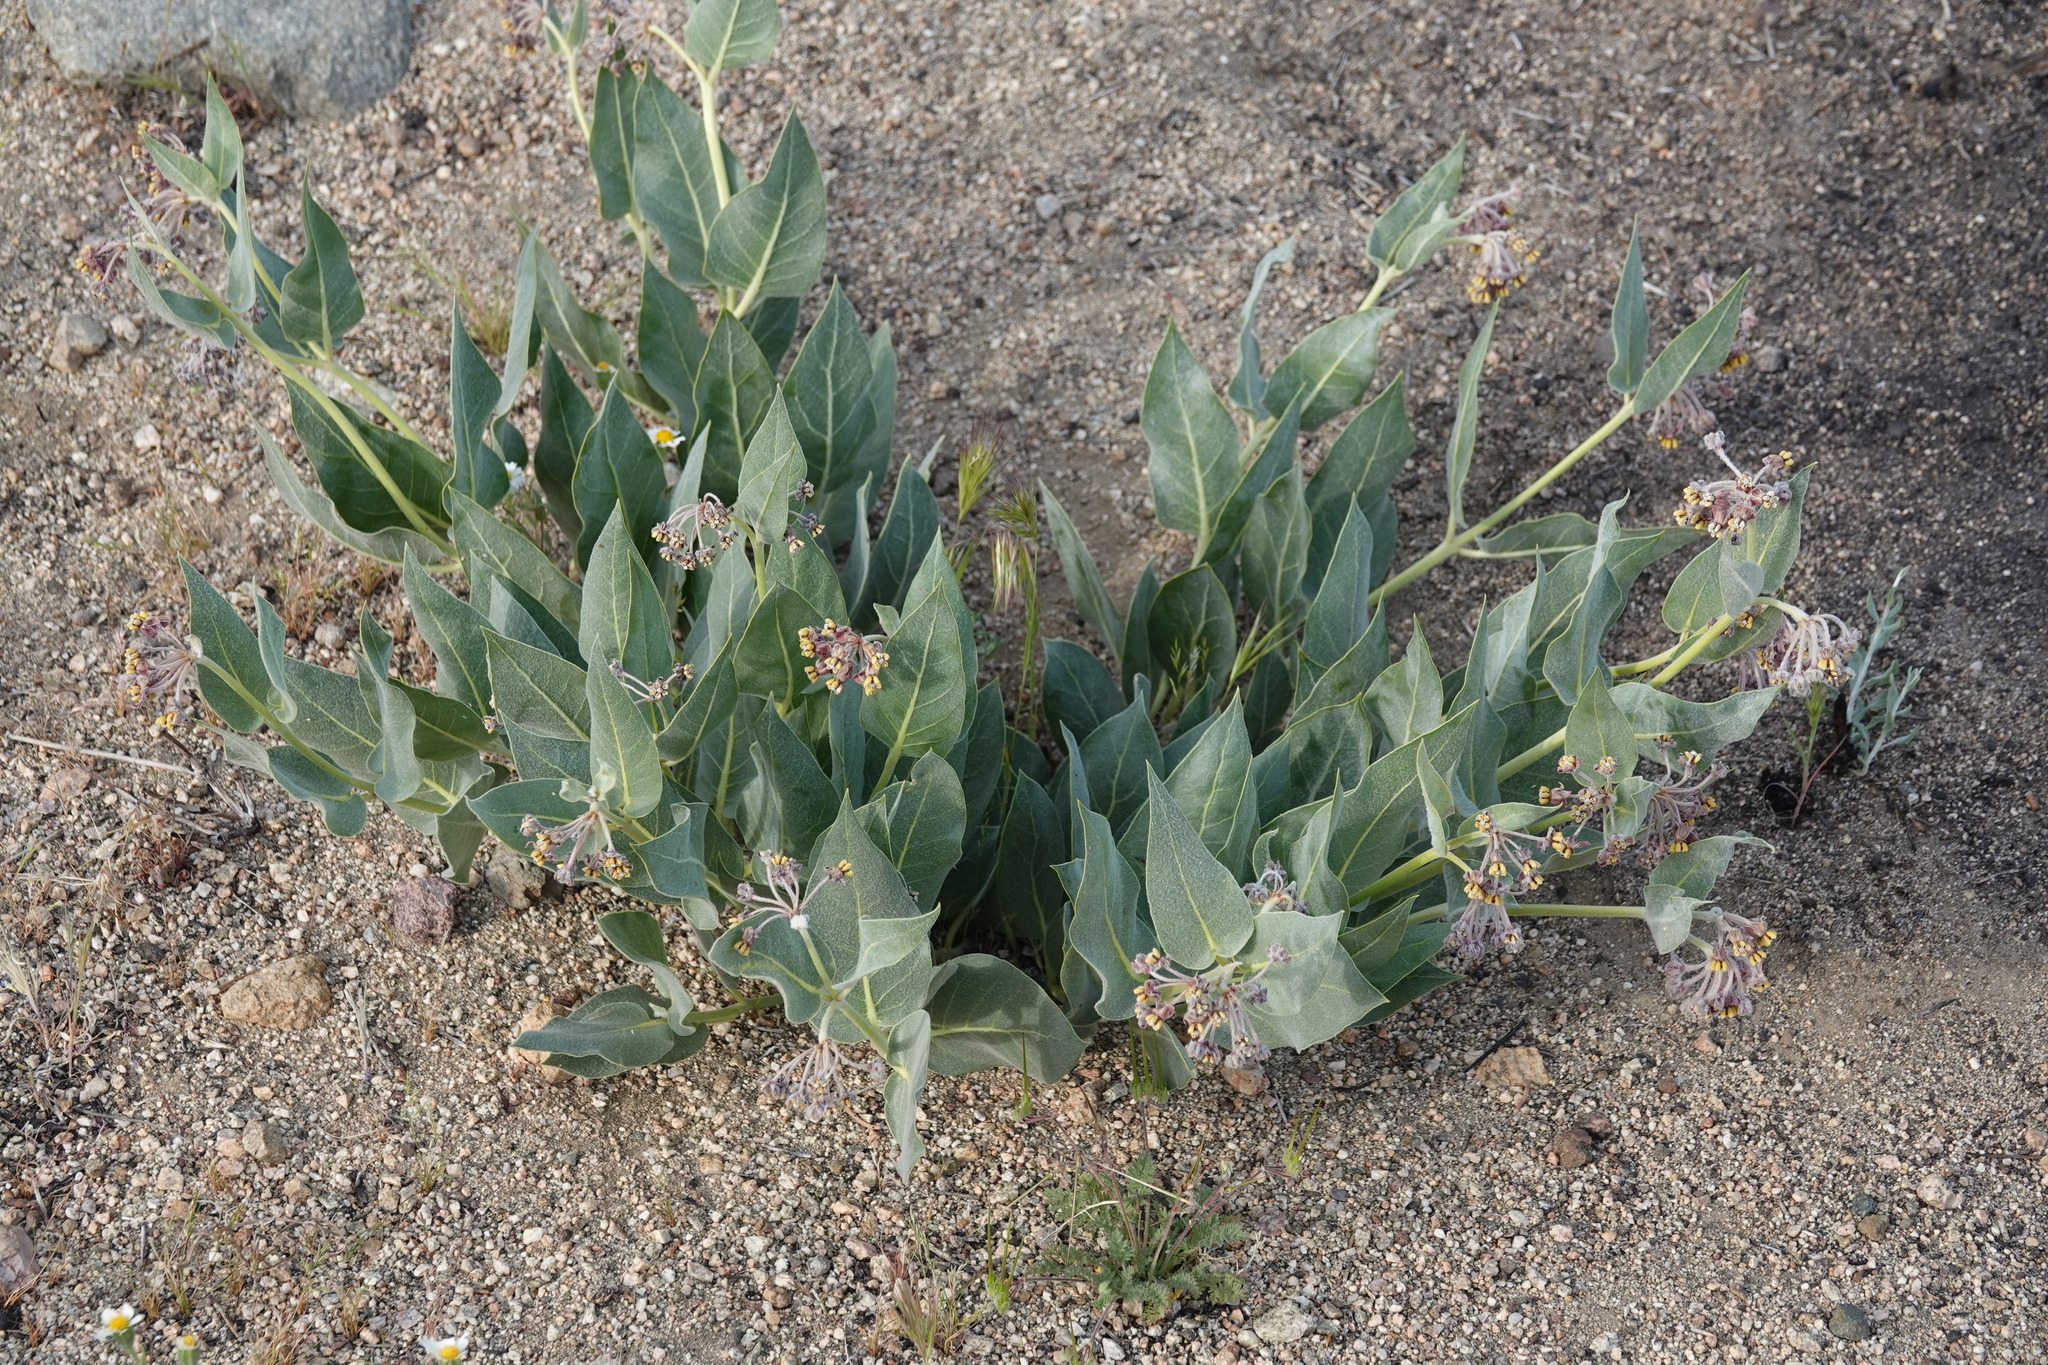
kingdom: Plantae
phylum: Tracheophyta
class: Magnoliopsida
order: Gentianales
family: Apocynaceae
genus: Asclepias
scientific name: Asclepias vestita
